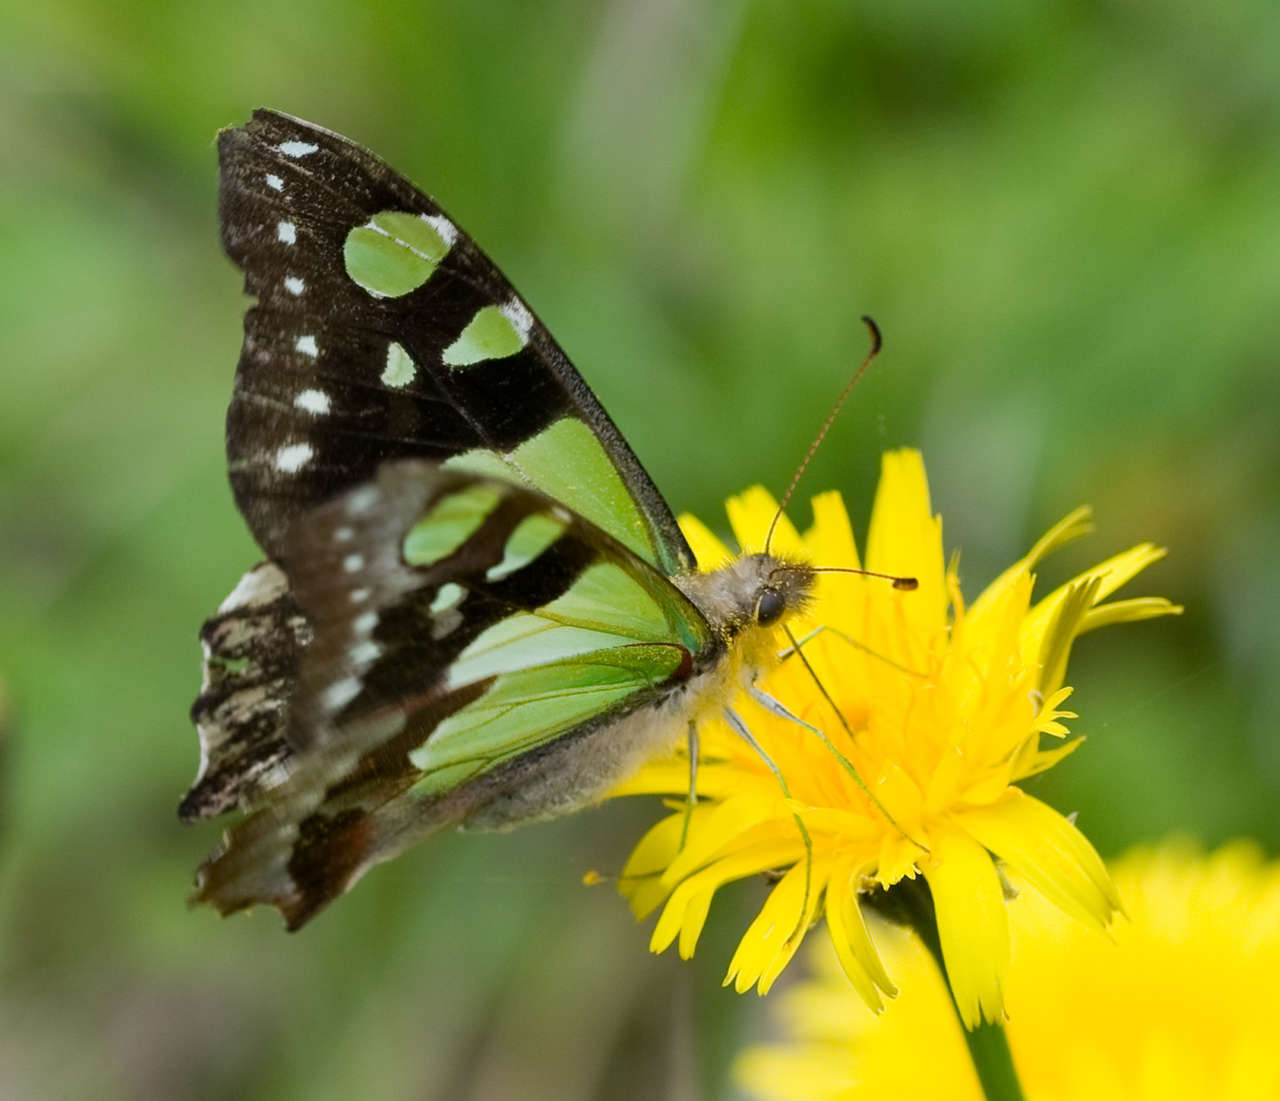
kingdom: Animalia
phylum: Arthropoda
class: Insecta
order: Lepidoptera
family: Papilionidae
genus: Graphium
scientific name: Graphium macleayanus
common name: Macleay's swallowtail
